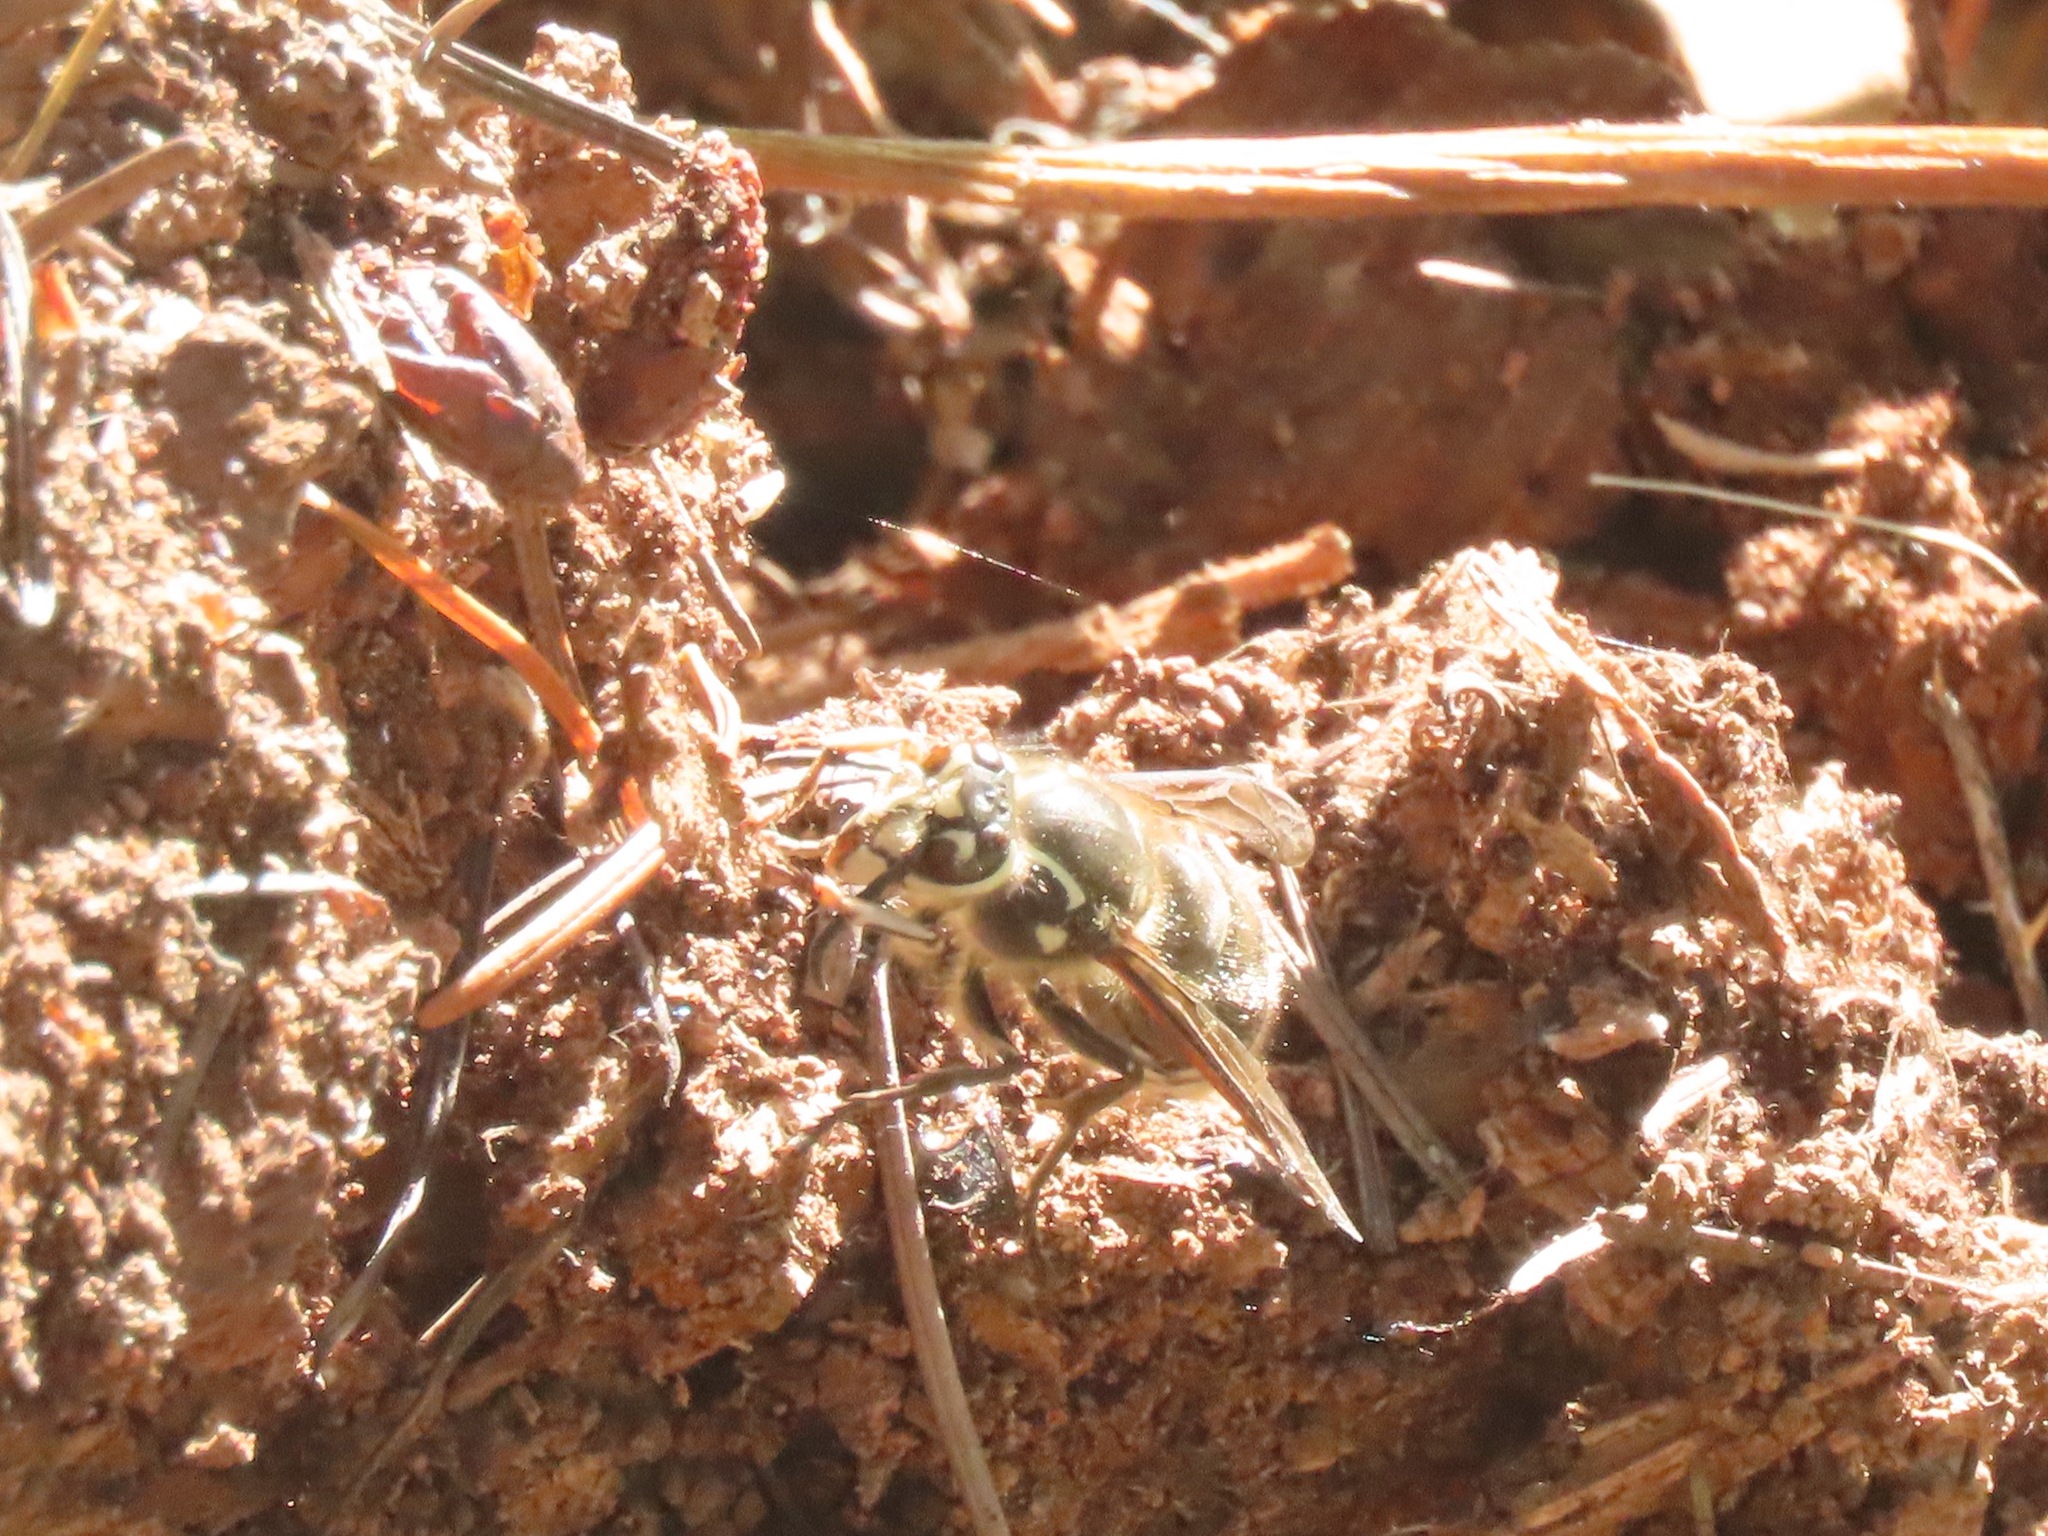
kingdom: Animalia
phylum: Arthropoda
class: Insecta
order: Hymenoptera
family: Vespidae
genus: Dolichovespula
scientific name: Dolichovespula maculata
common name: Bald-faced hornet
